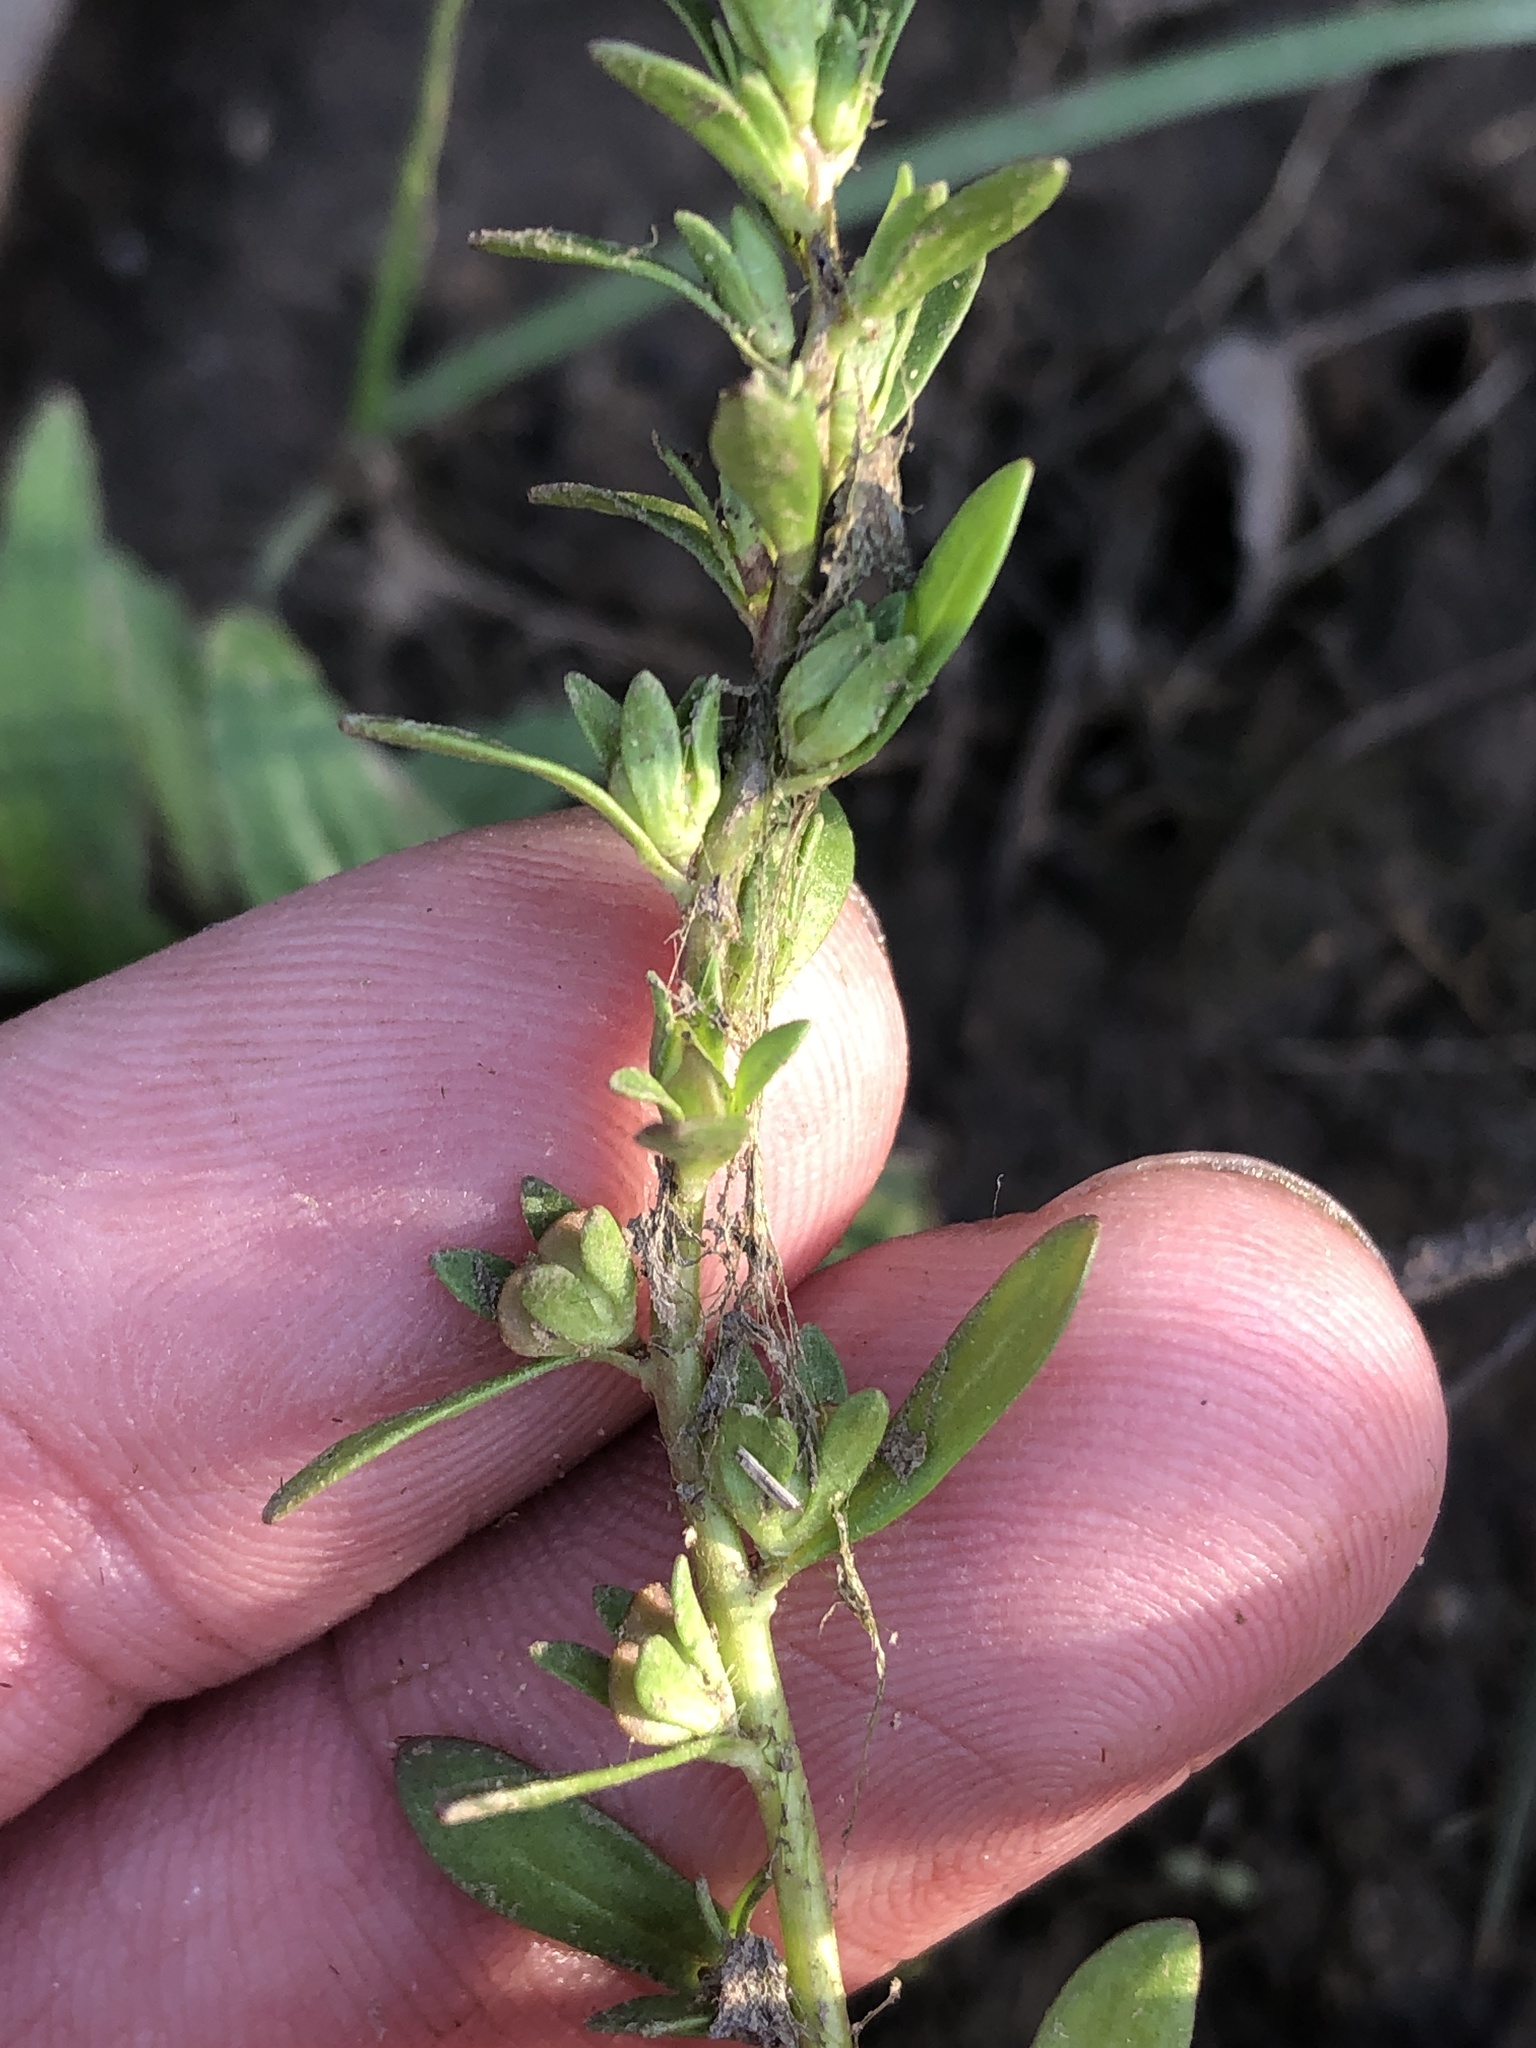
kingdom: Plantae
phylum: Tracheophyta
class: Magnoliopsida
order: Lamiales
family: Plantaginaceae
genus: Veronica
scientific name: Veronica peregrina
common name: Neckweed
